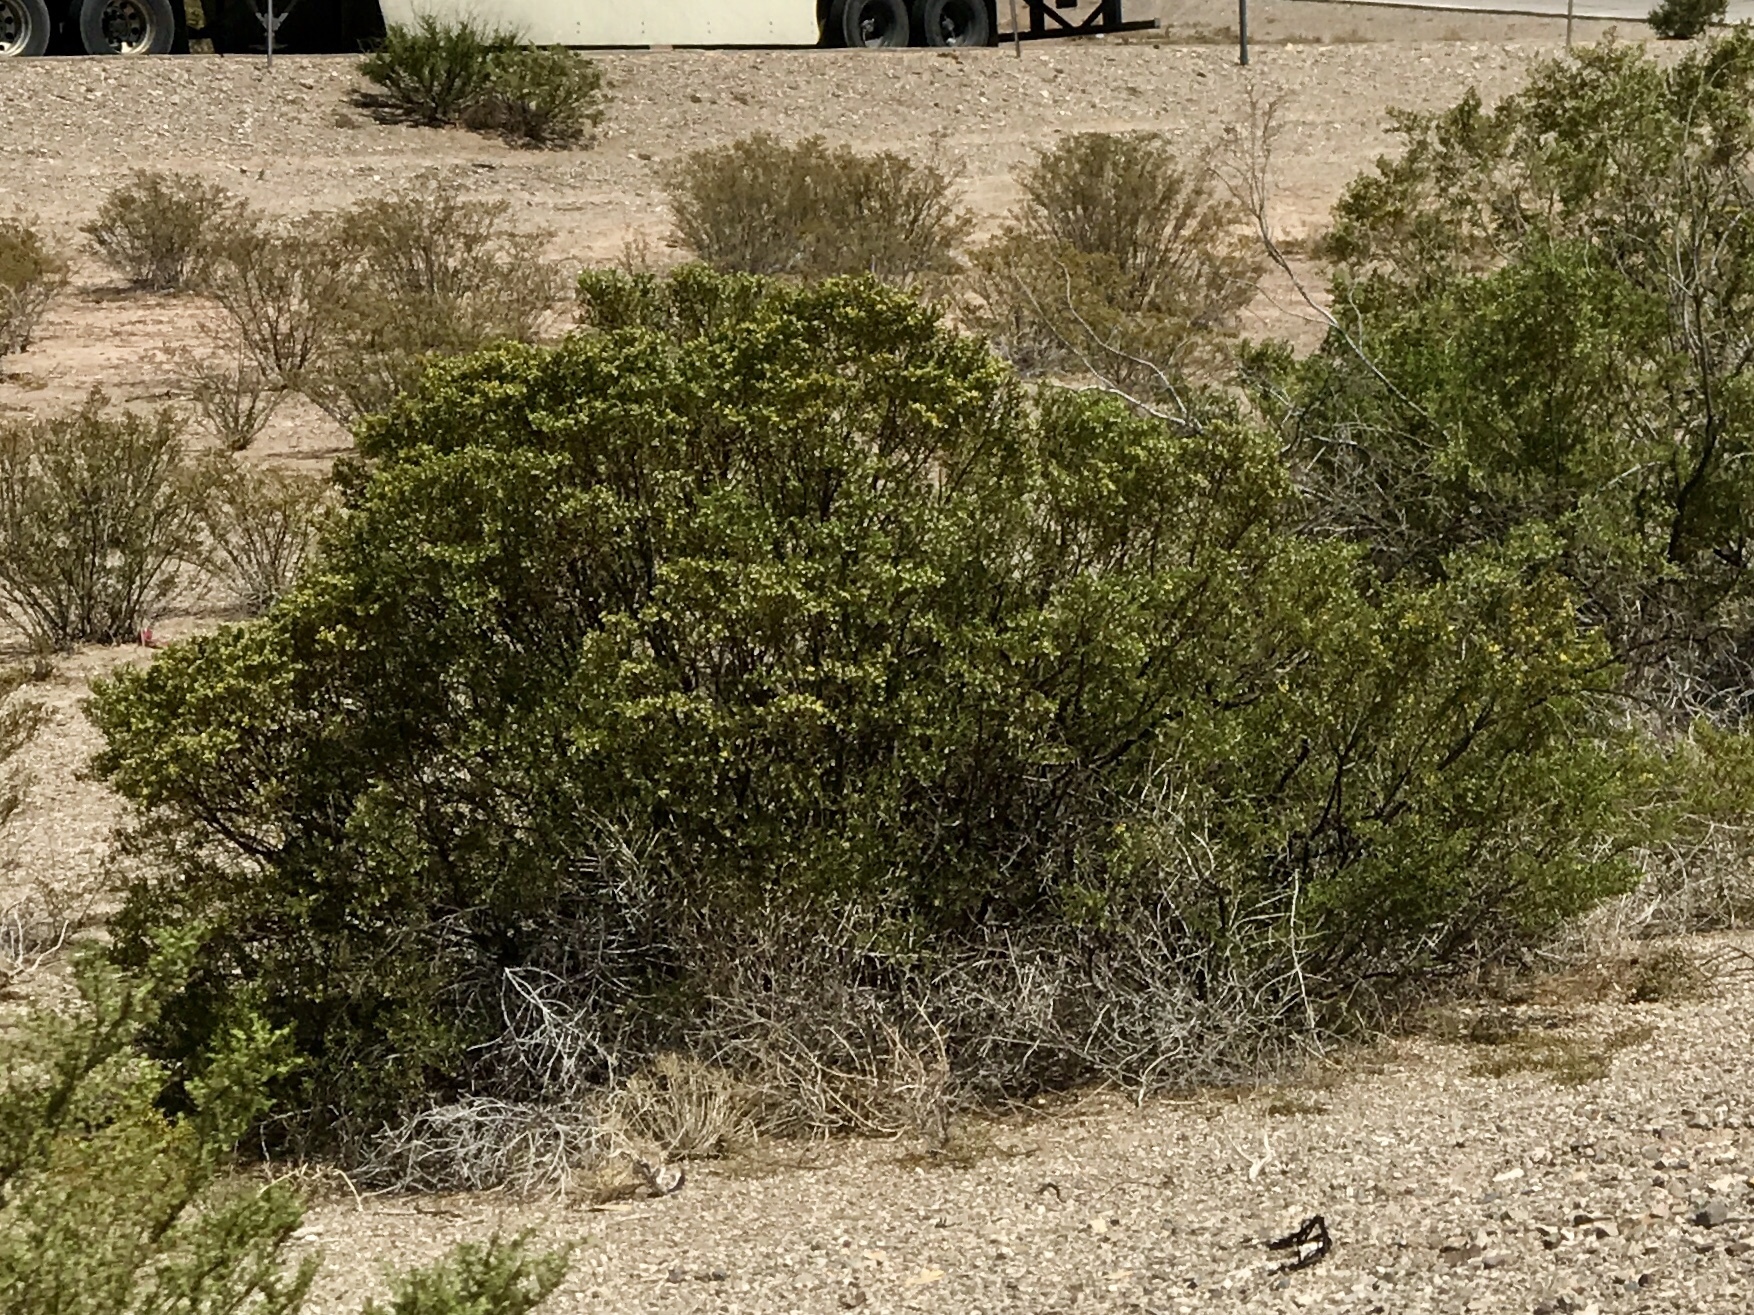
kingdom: Plantae
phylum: Tracheophyta
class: Magnoliopsida
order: Zygophyllales
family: Zygophyllaceae
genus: Larrea
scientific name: Larrea tridentata
